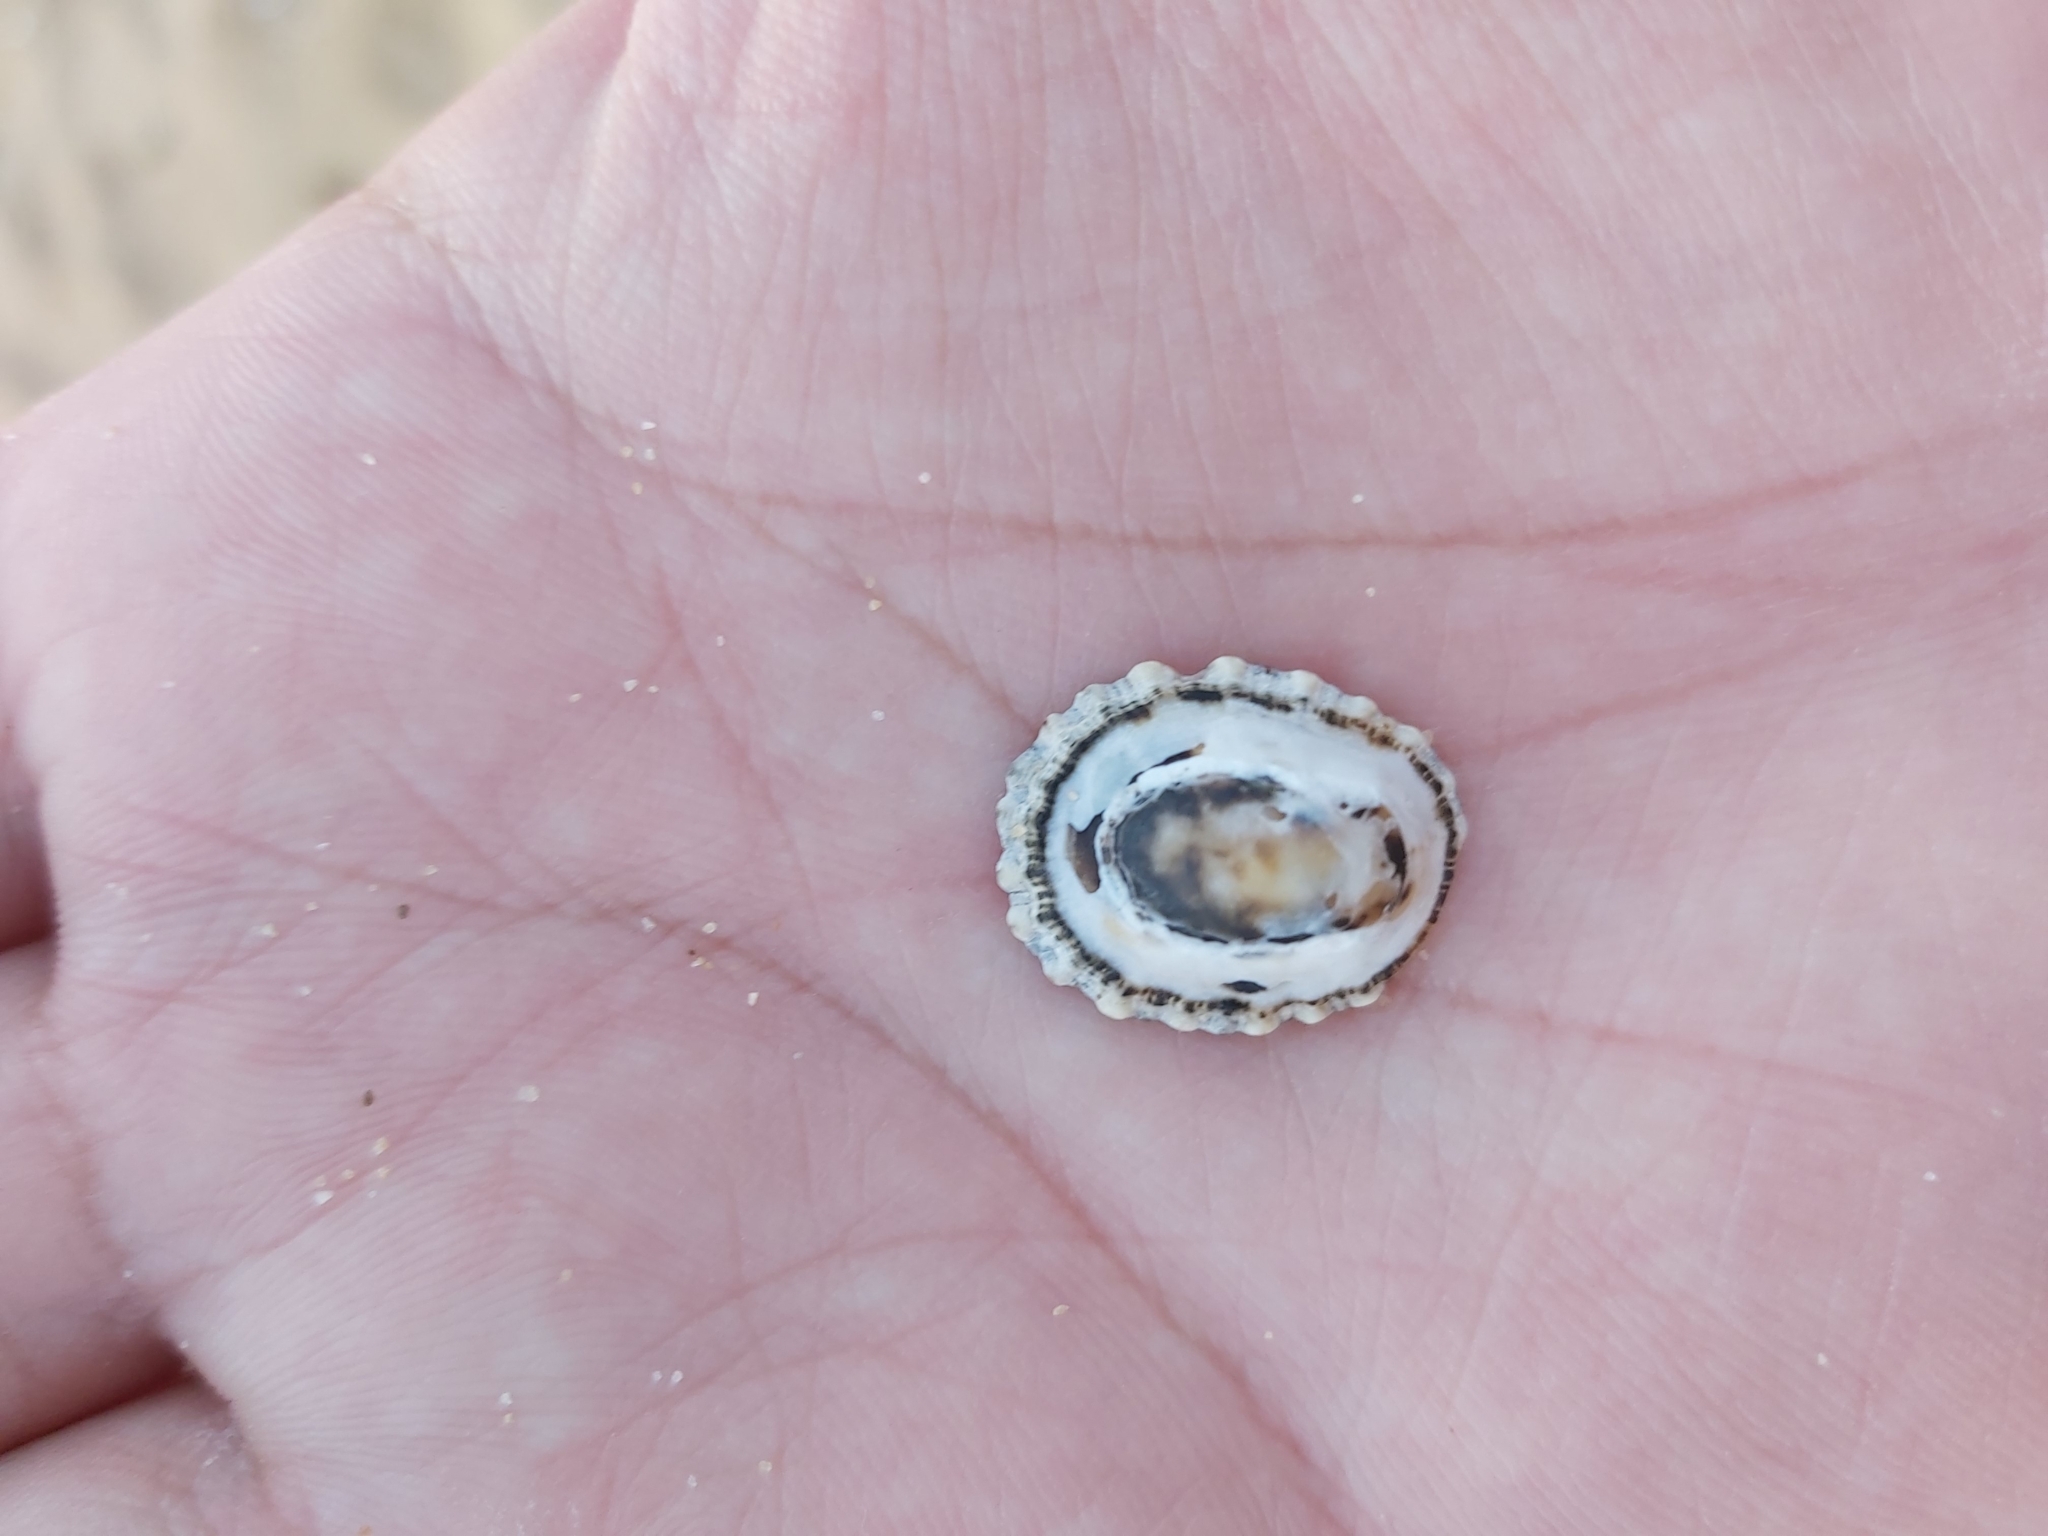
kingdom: Animalia
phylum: Mollusca
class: Gastropoda
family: Patellidae
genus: Scutellastra
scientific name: Scutellastra peronii
